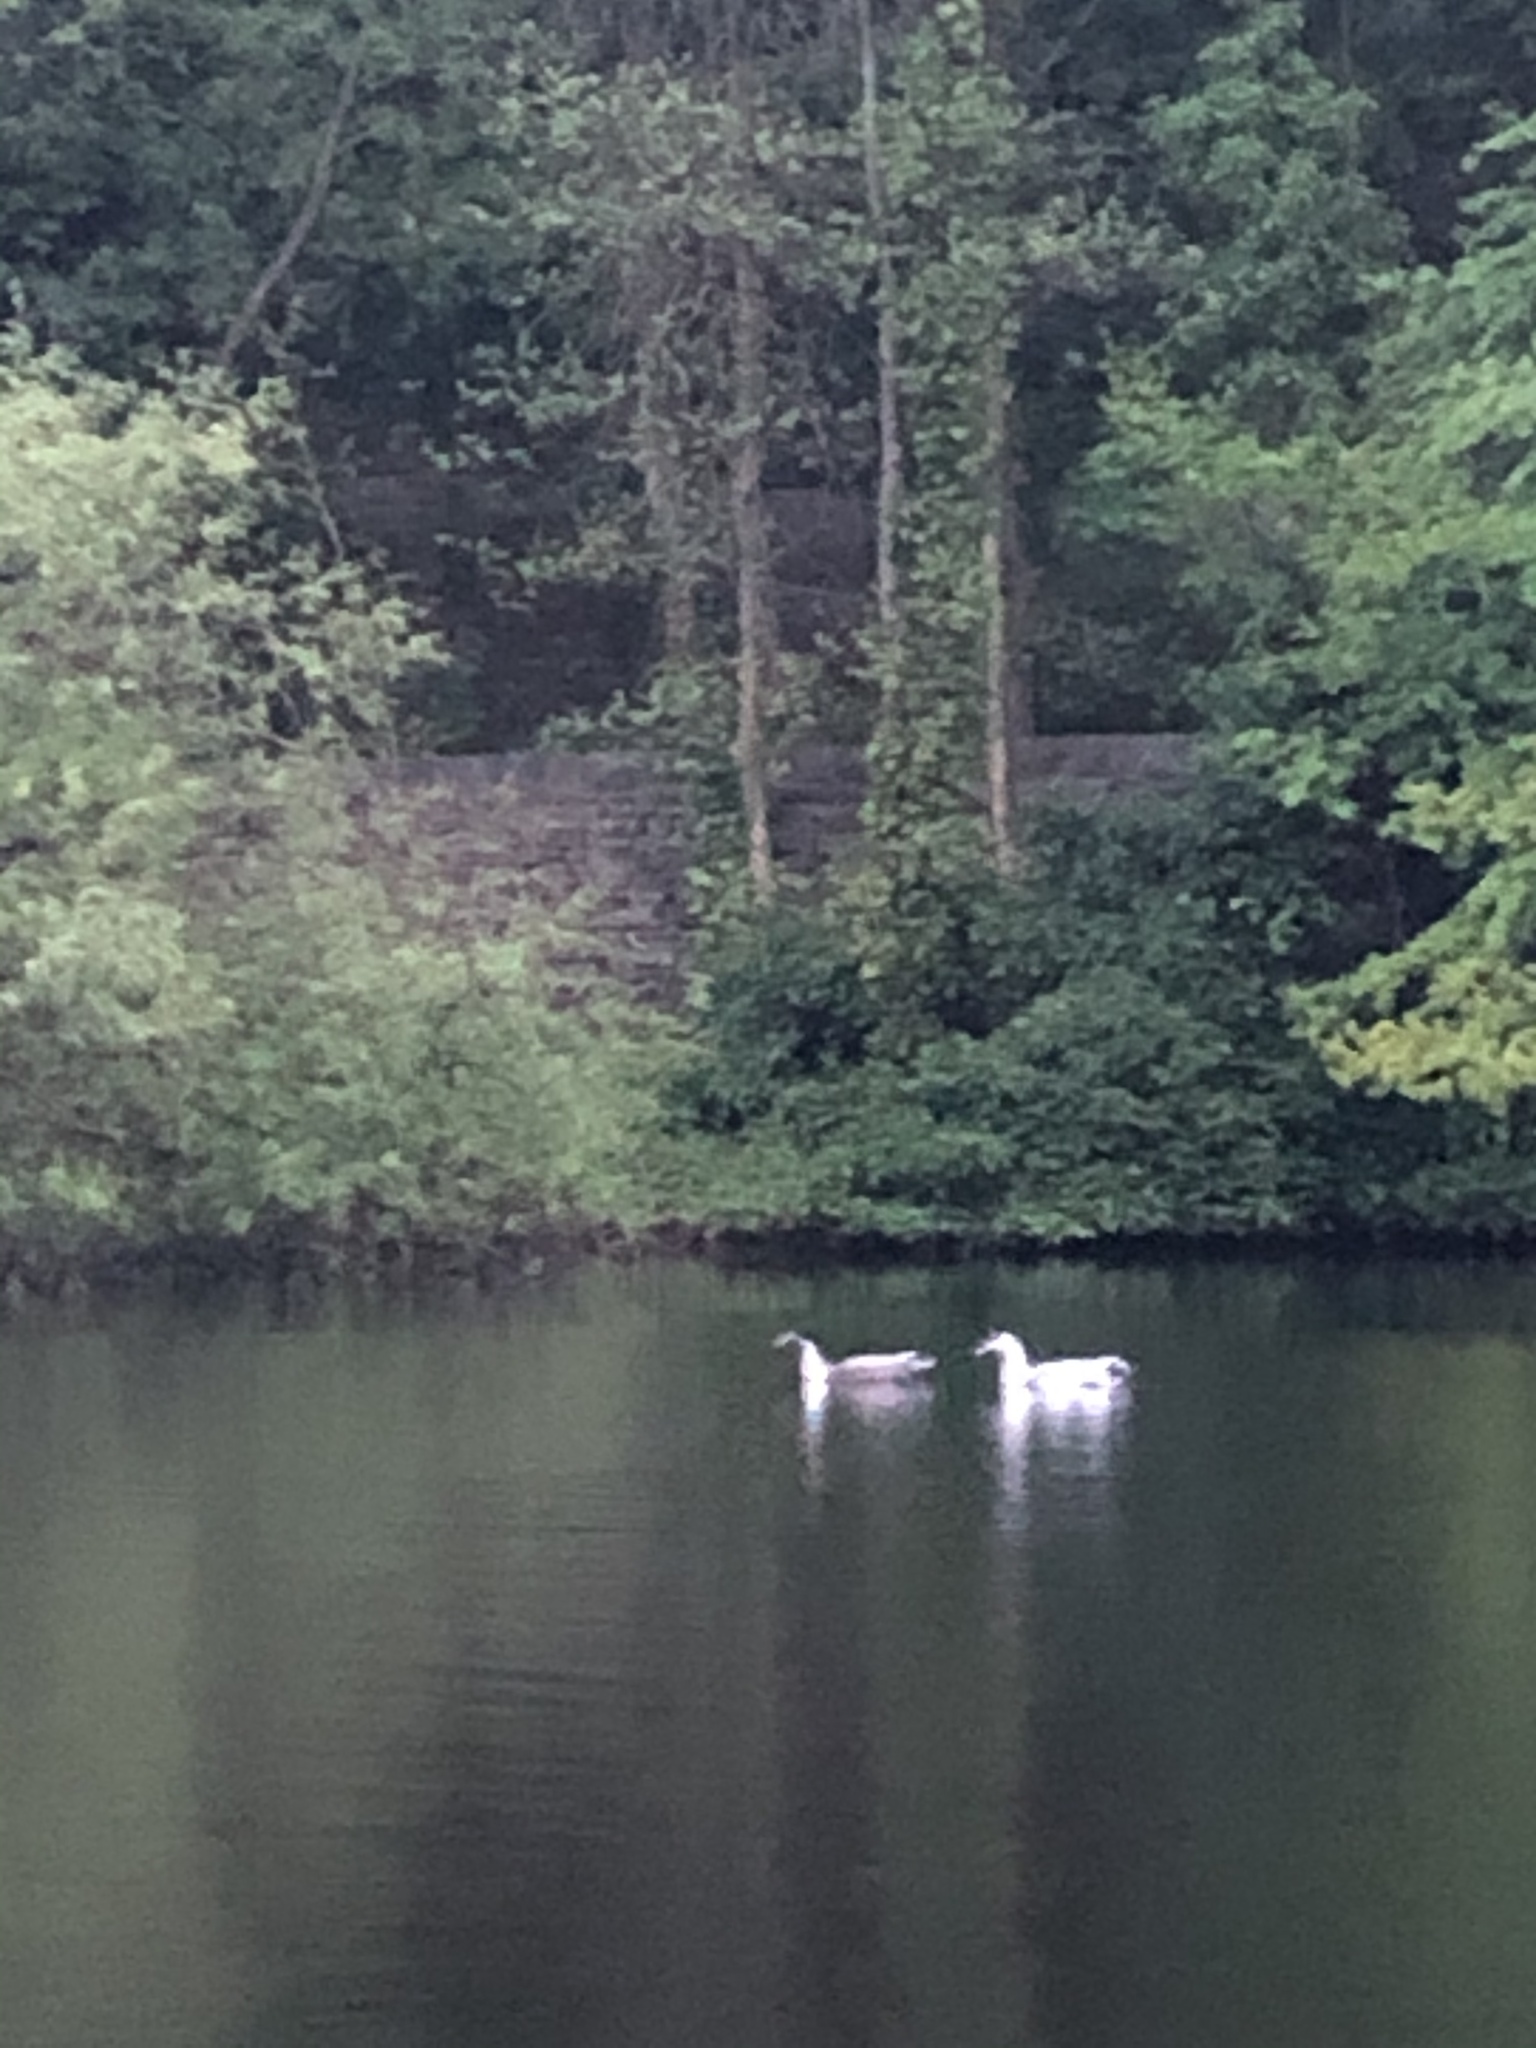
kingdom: Animalia
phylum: Chordata
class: Aves
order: Anseriformes
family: Anatidae
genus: Anas
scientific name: Anas platyrhynchos
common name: Mallard
